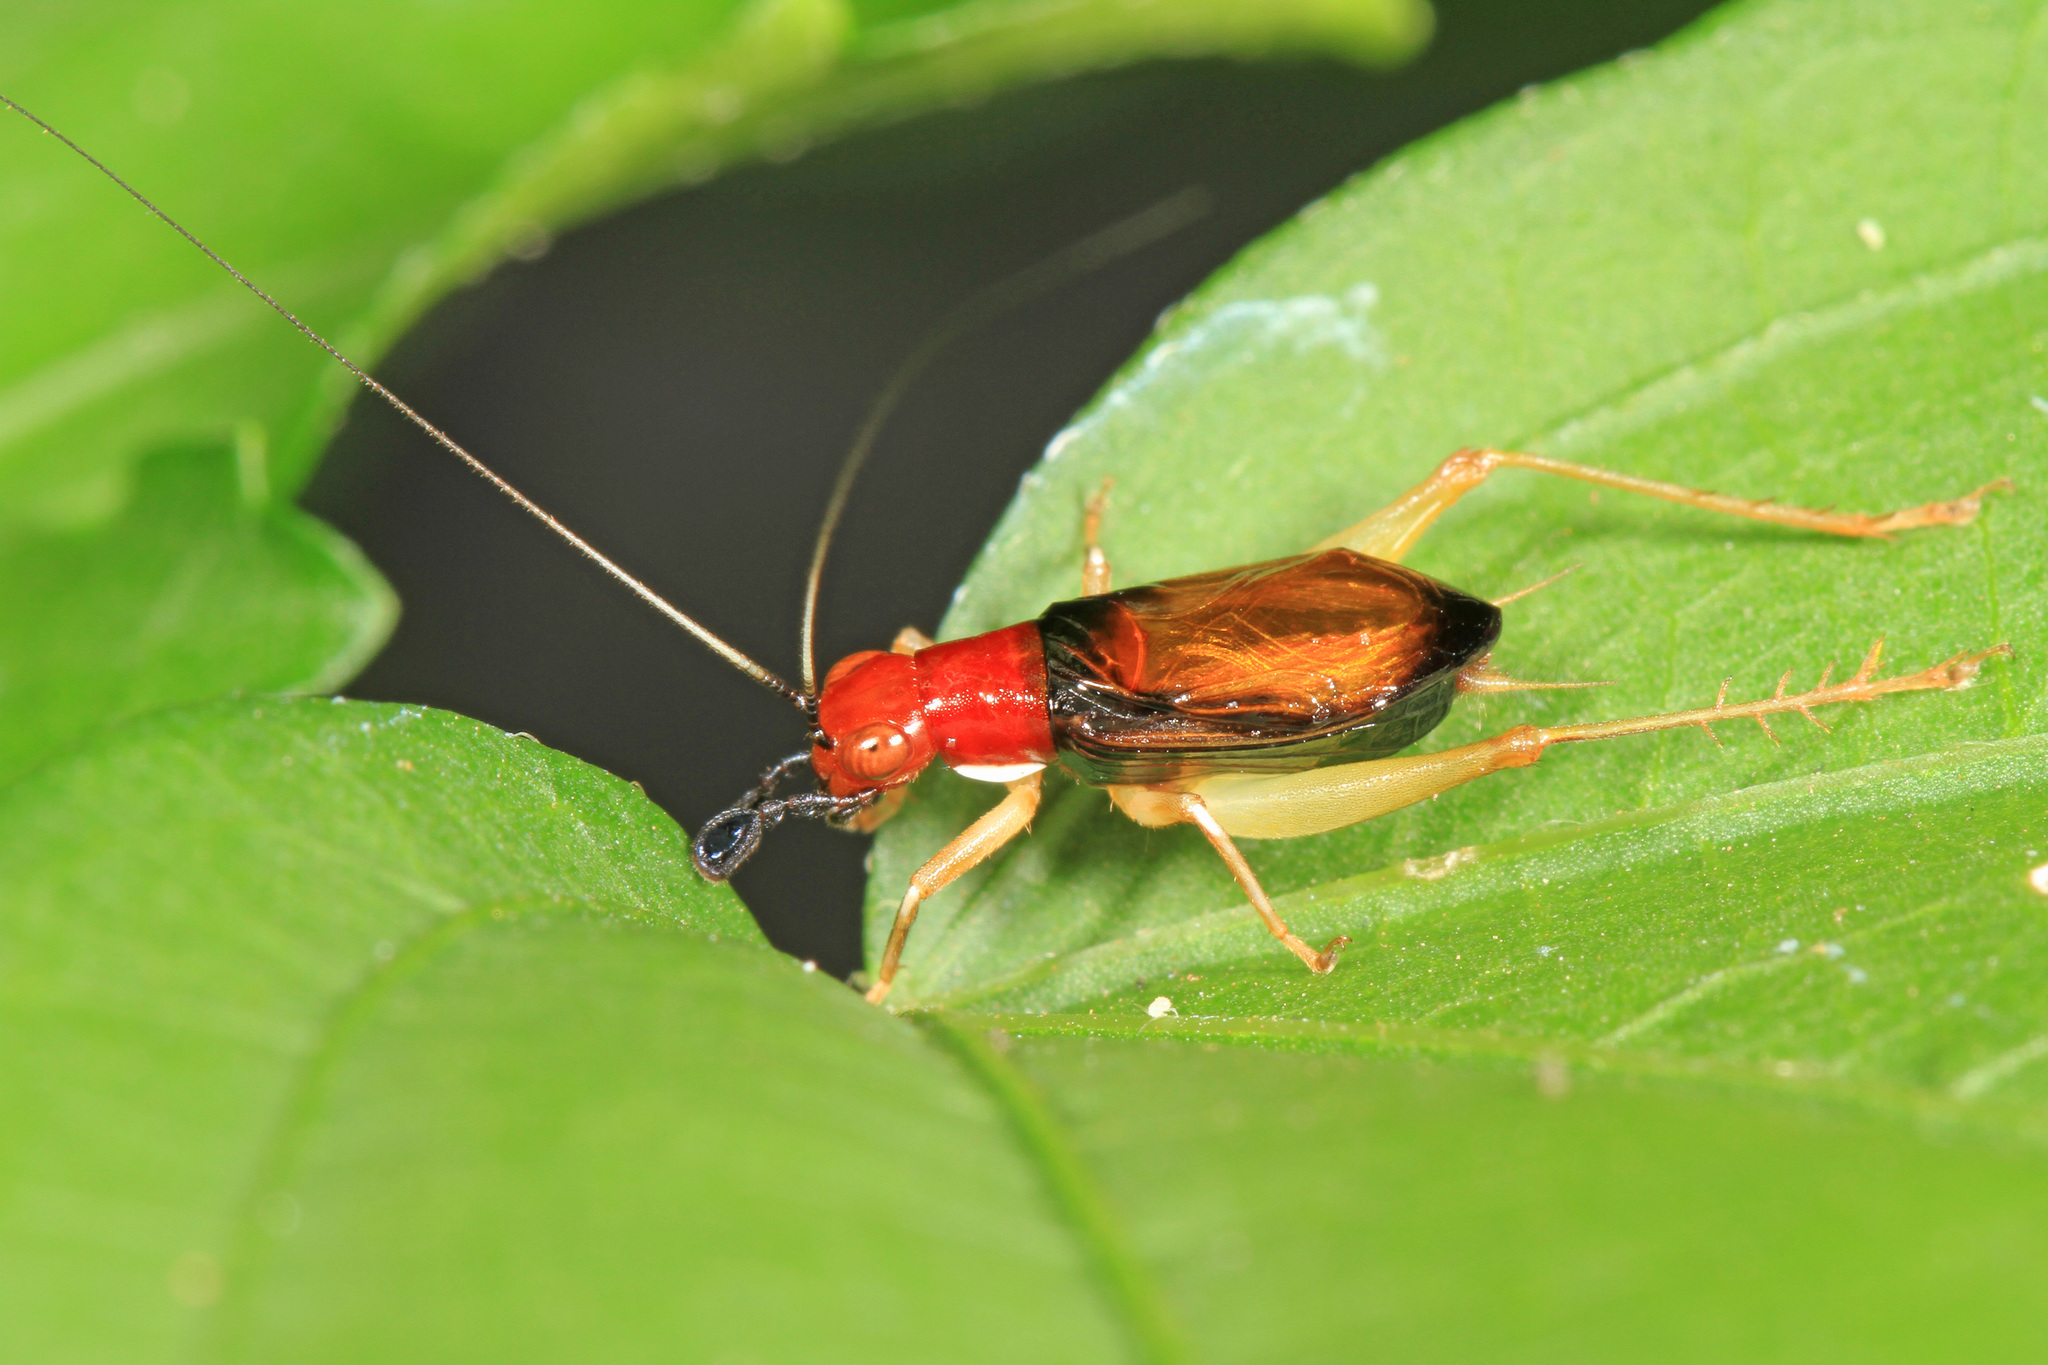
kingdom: Animalia
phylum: Arthropoda
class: Insecta
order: Orthoptera
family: Trigonidiidae
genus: Phyllopalpus
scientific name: Phyllopalpus pulchellus
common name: Handsome trig
